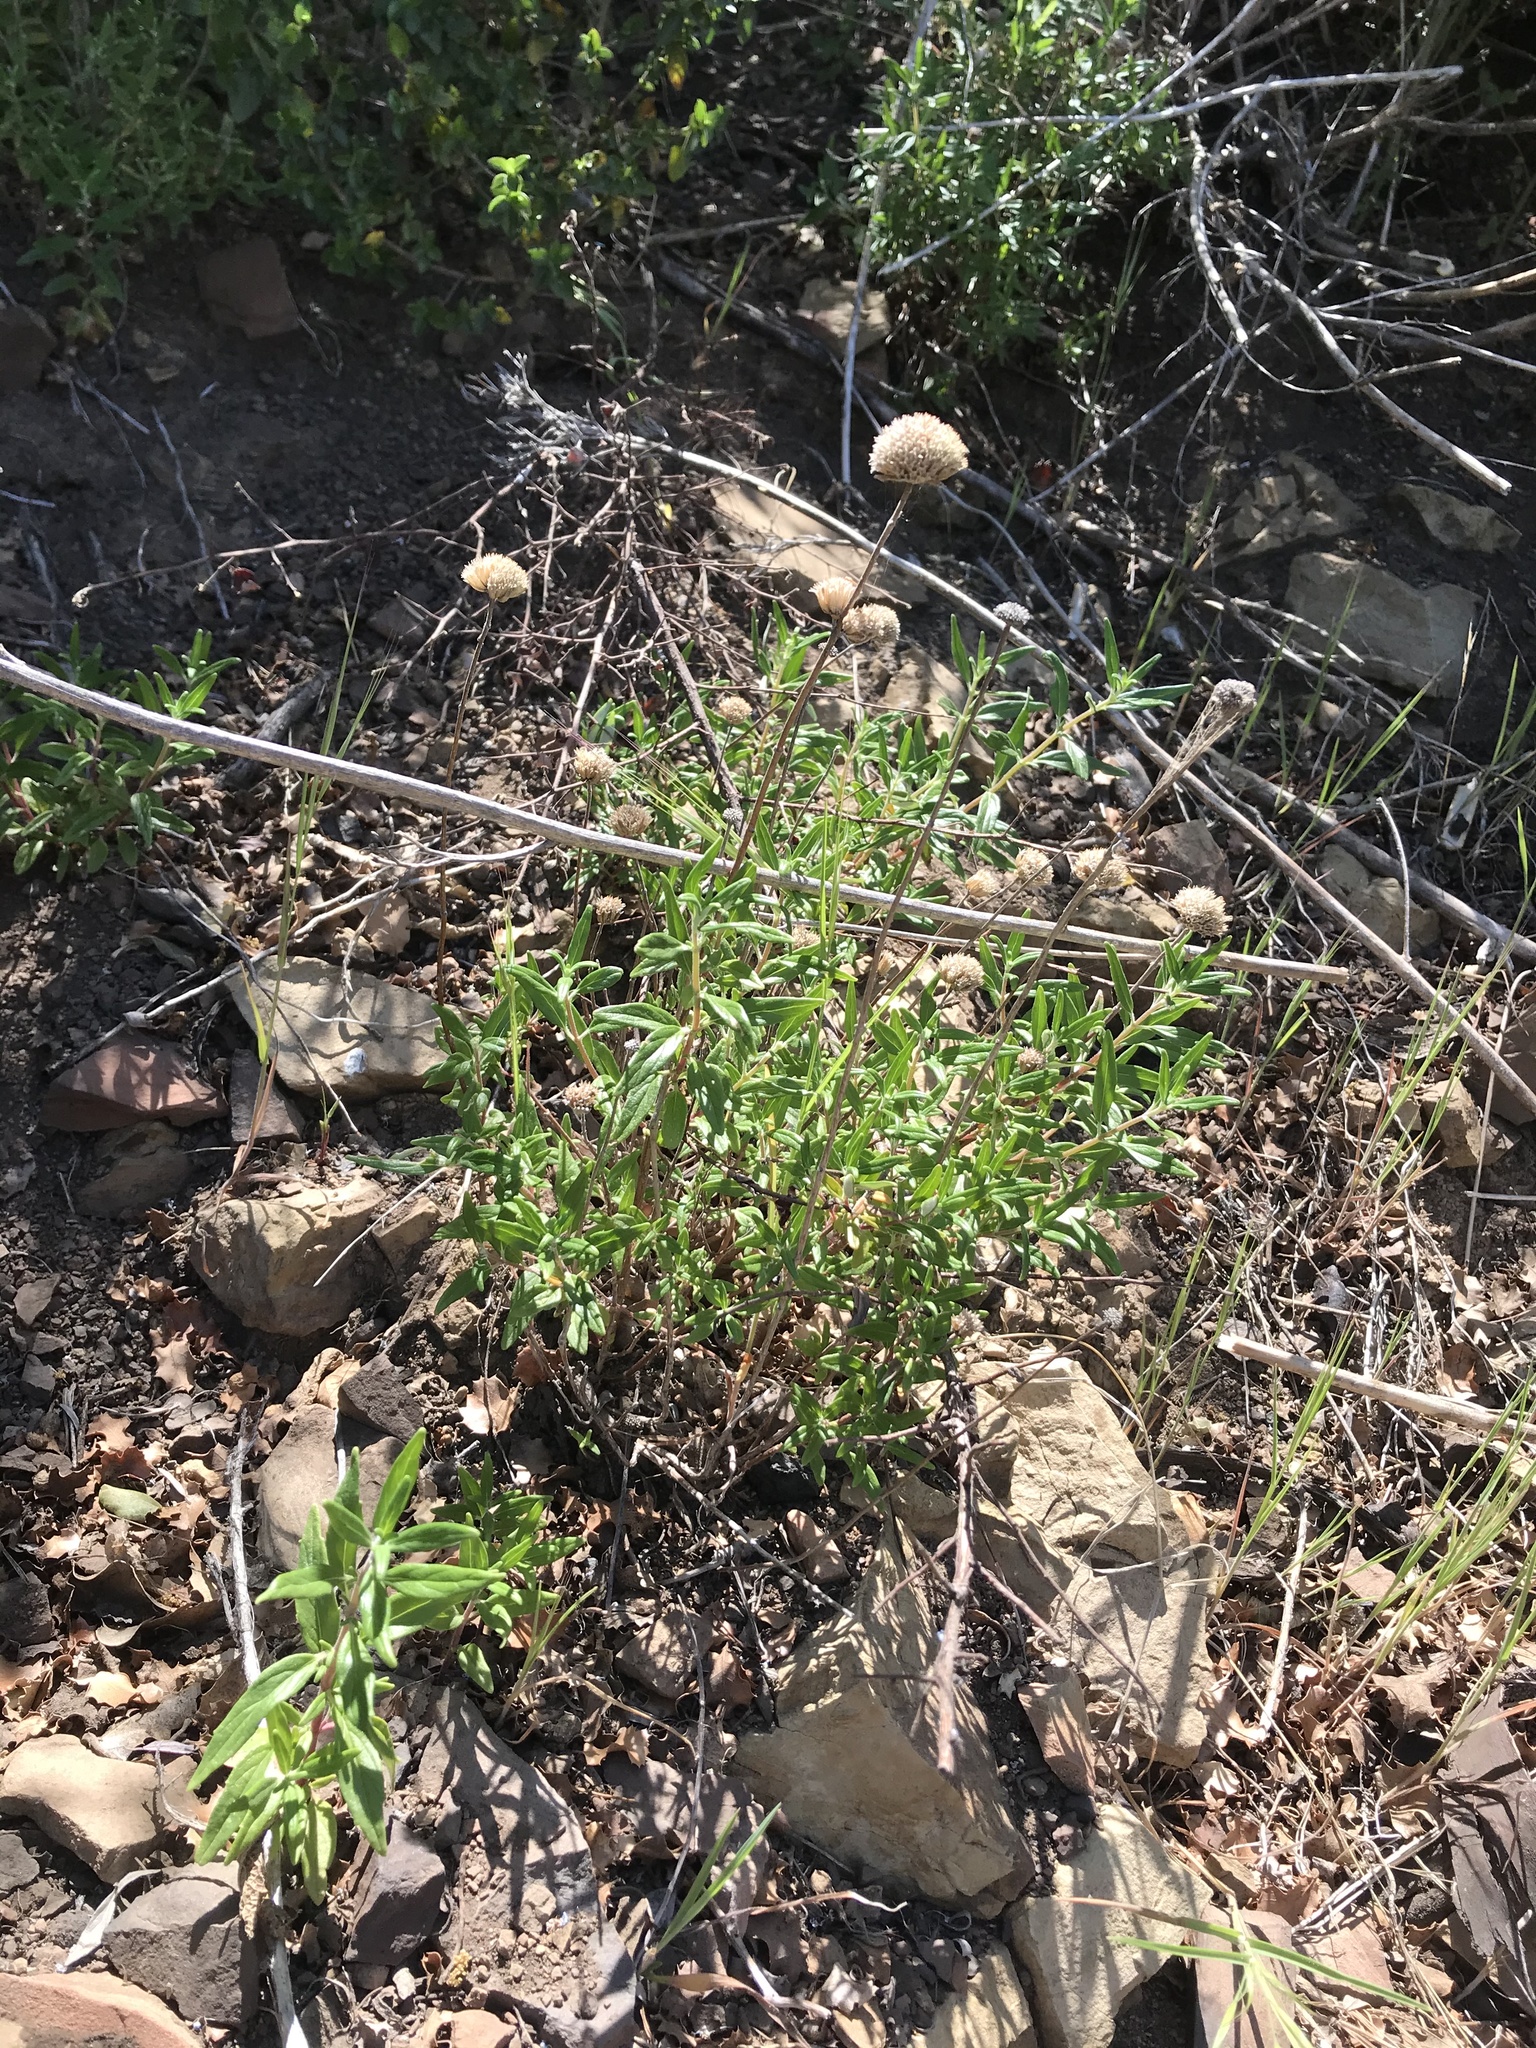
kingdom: Plantae
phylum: Tracheophyta
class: Magnoliopsida
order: Lamiales
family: Lamiaceae
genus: Monardella
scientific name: Monardella hypoleuca
